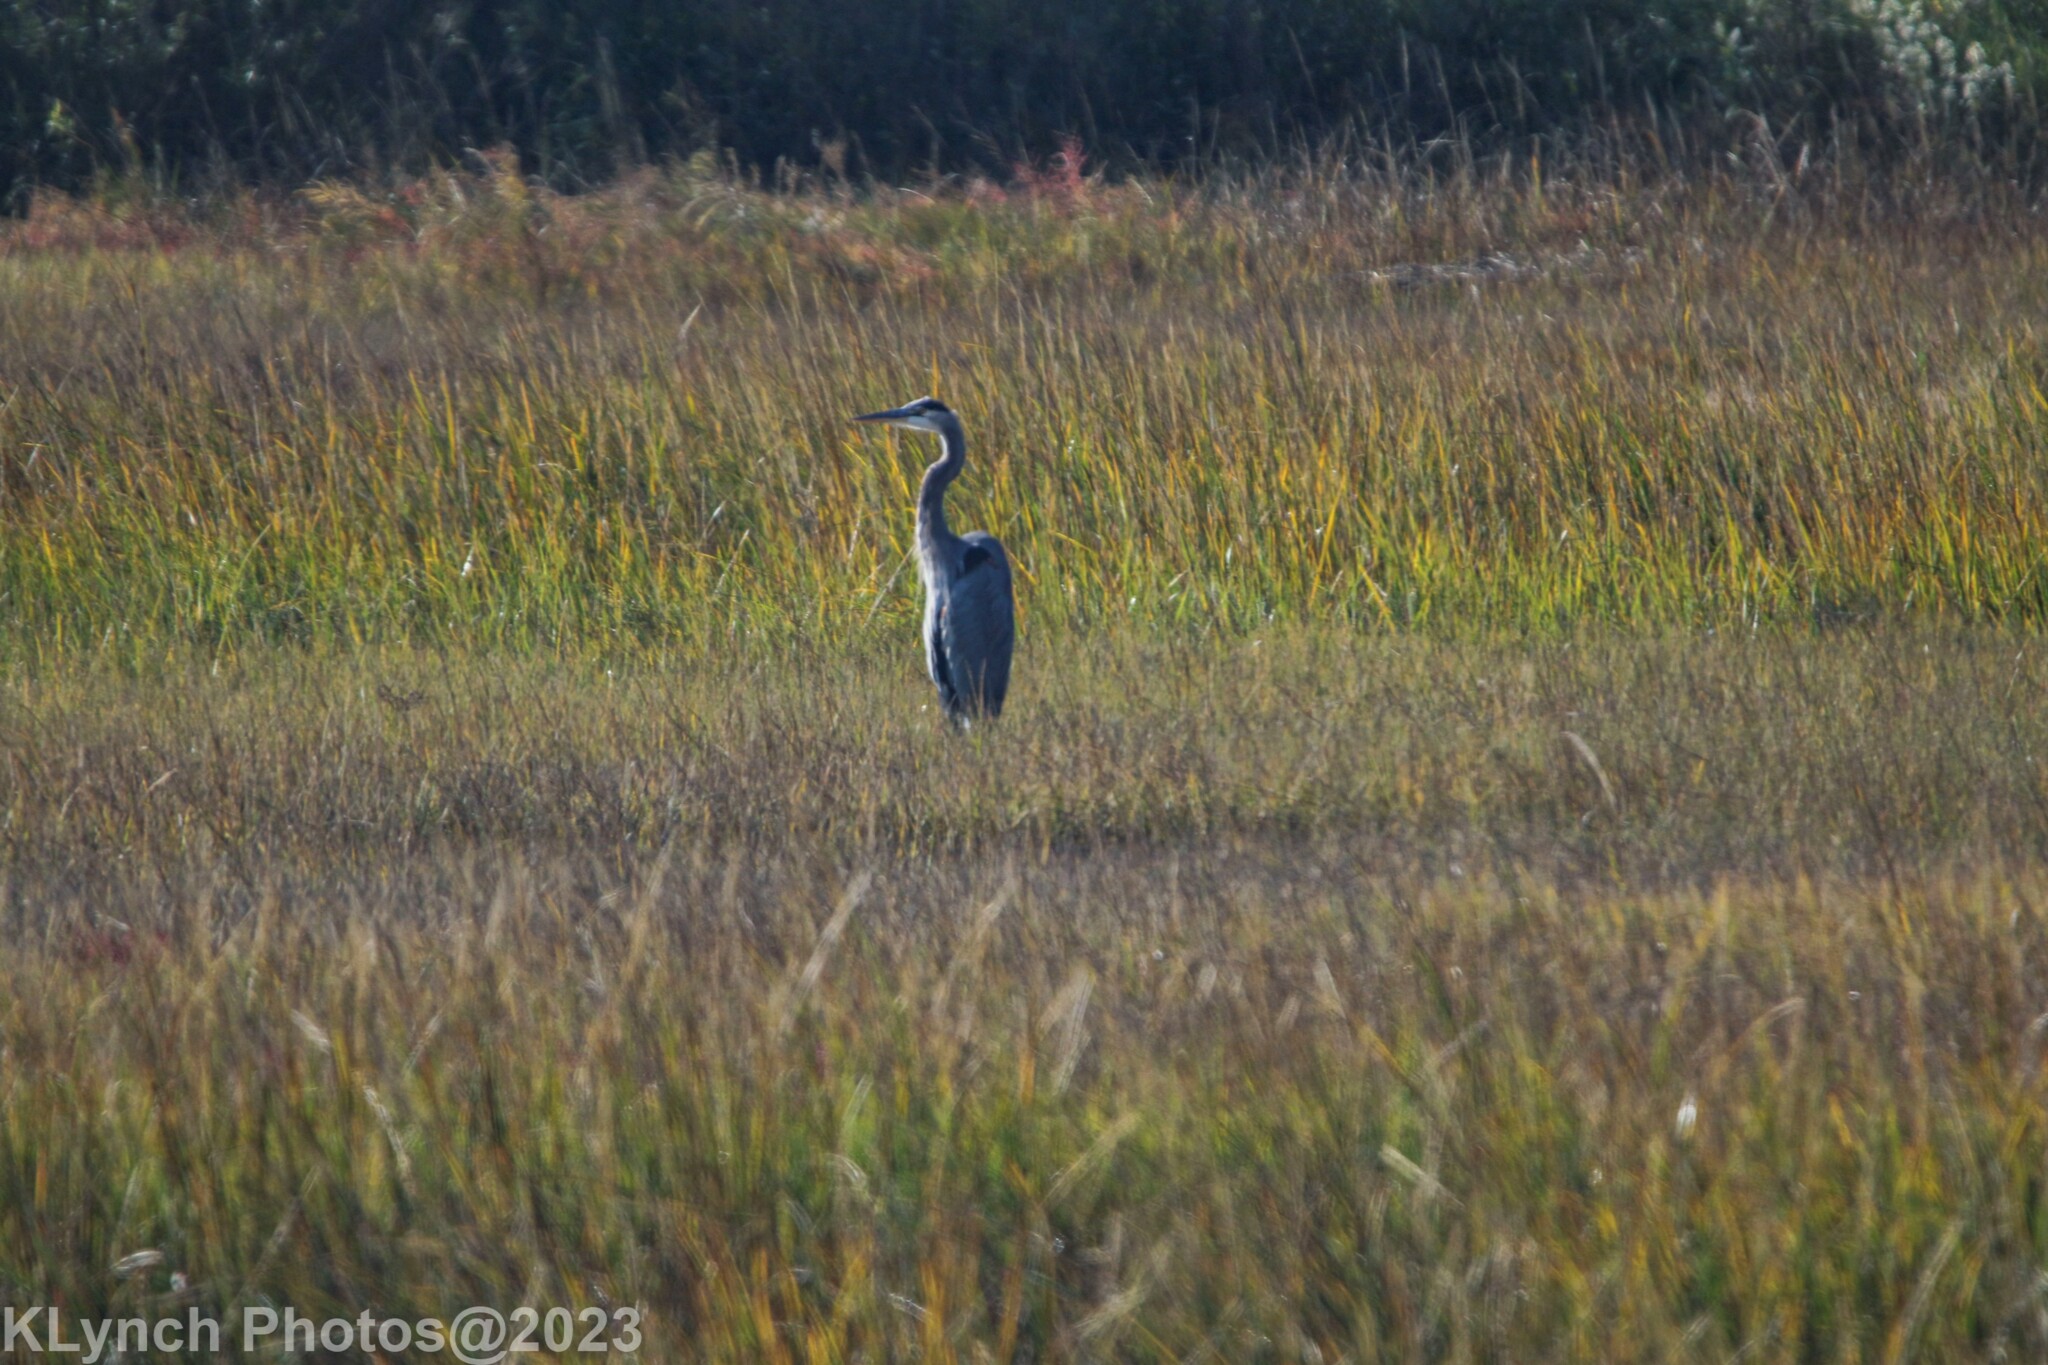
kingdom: Animalia
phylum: Chordata
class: Aves
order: Pelecaniformes
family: Ardeidae
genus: Ardea
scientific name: Ardea herodias
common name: Great blue heron
